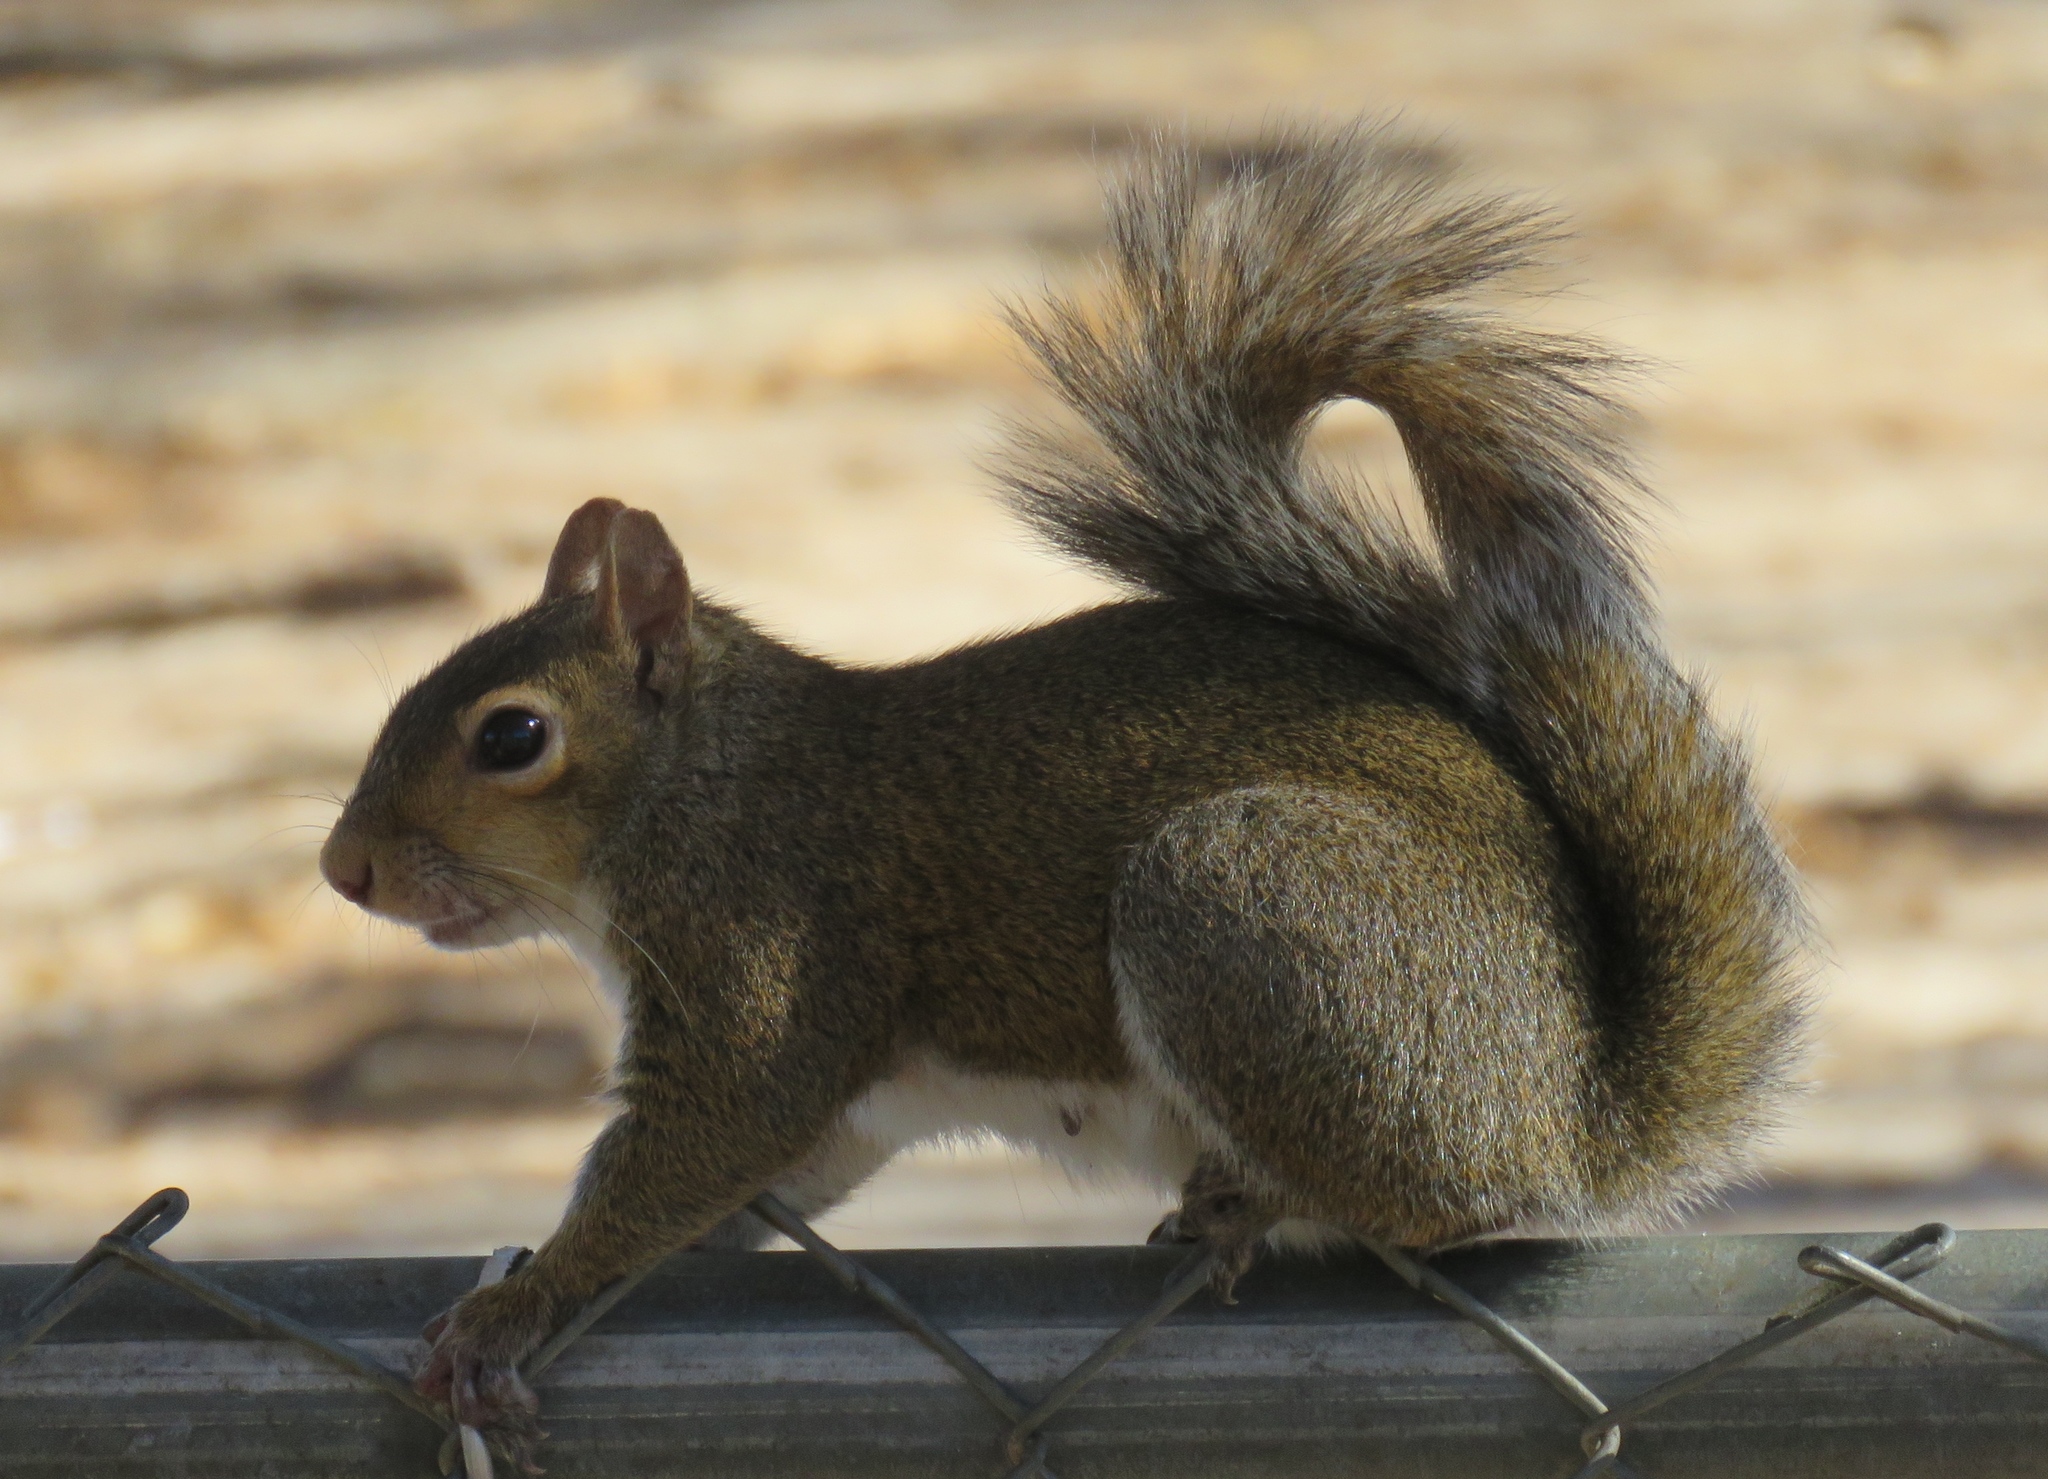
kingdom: Animalia
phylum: Chordata
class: Mammalia
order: Rodentia
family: Sciuridae
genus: Sciurus
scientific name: Sciurus carolinensis
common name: Eastern gray squirrel
